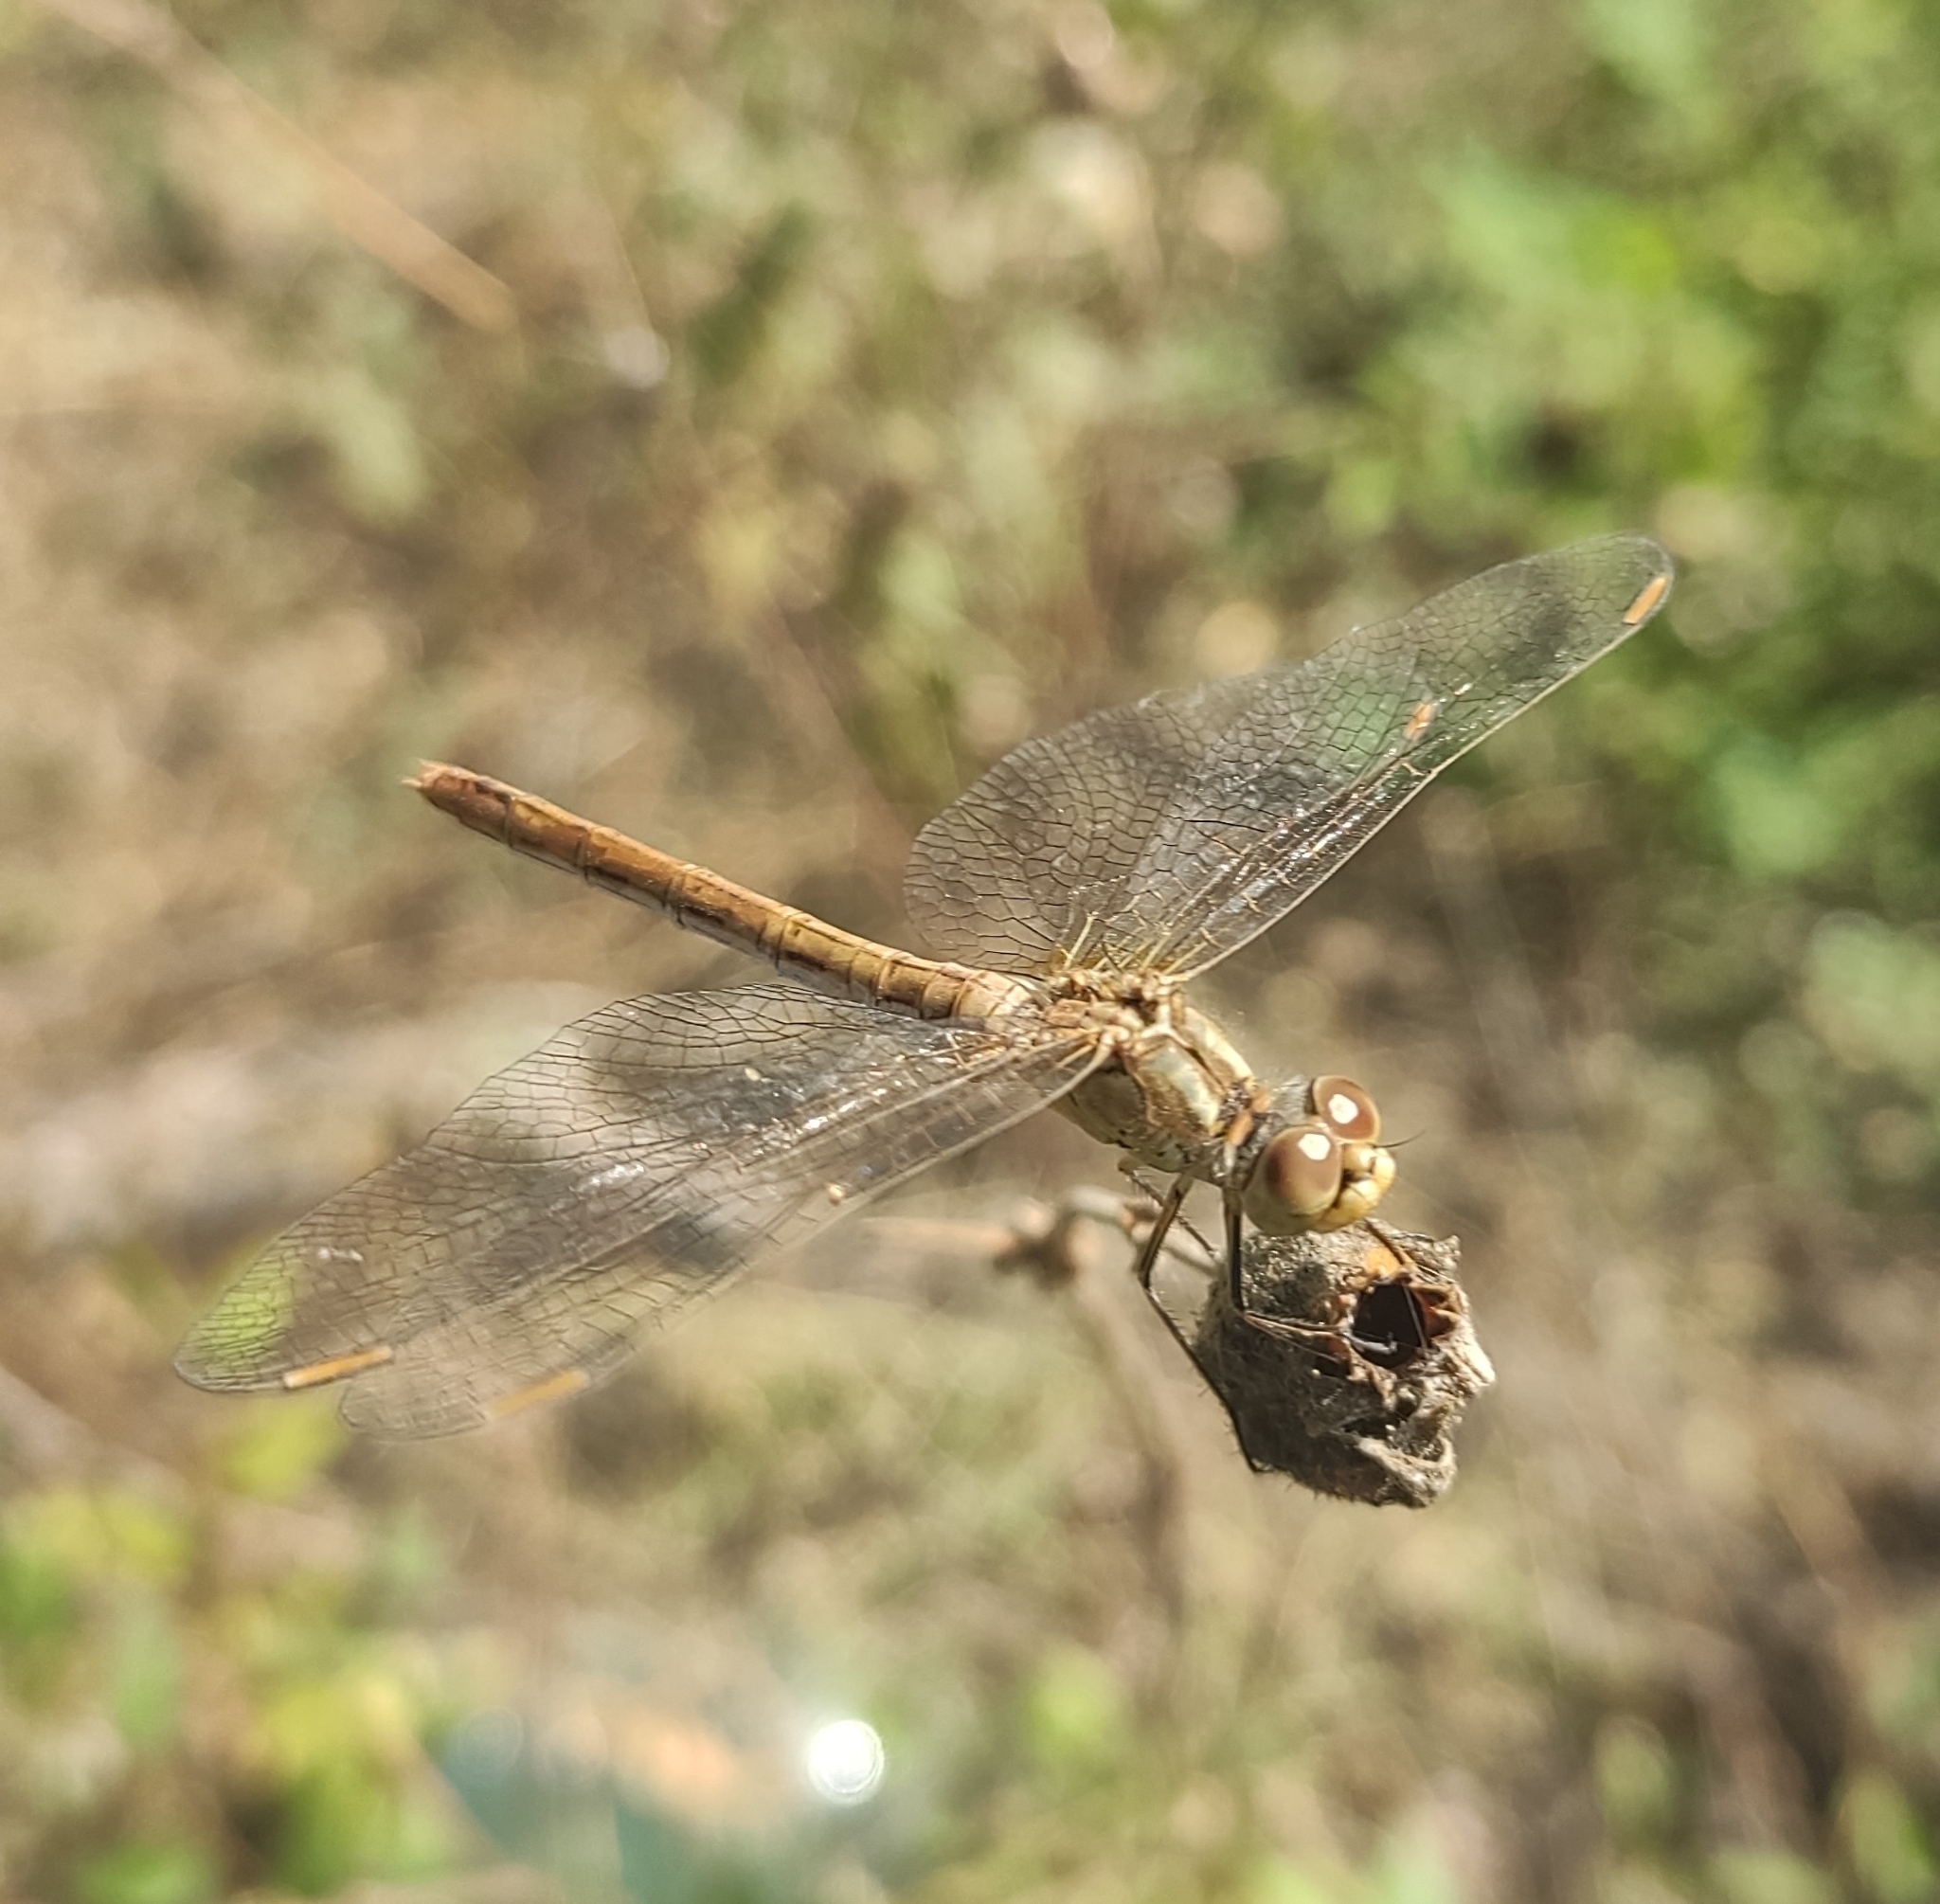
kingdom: Animalia
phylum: Arthropoda
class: Insecta
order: Odonata
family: Libellulidae
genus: Sympetrum
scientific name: Sympetrum meridionale
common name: Southern darter
